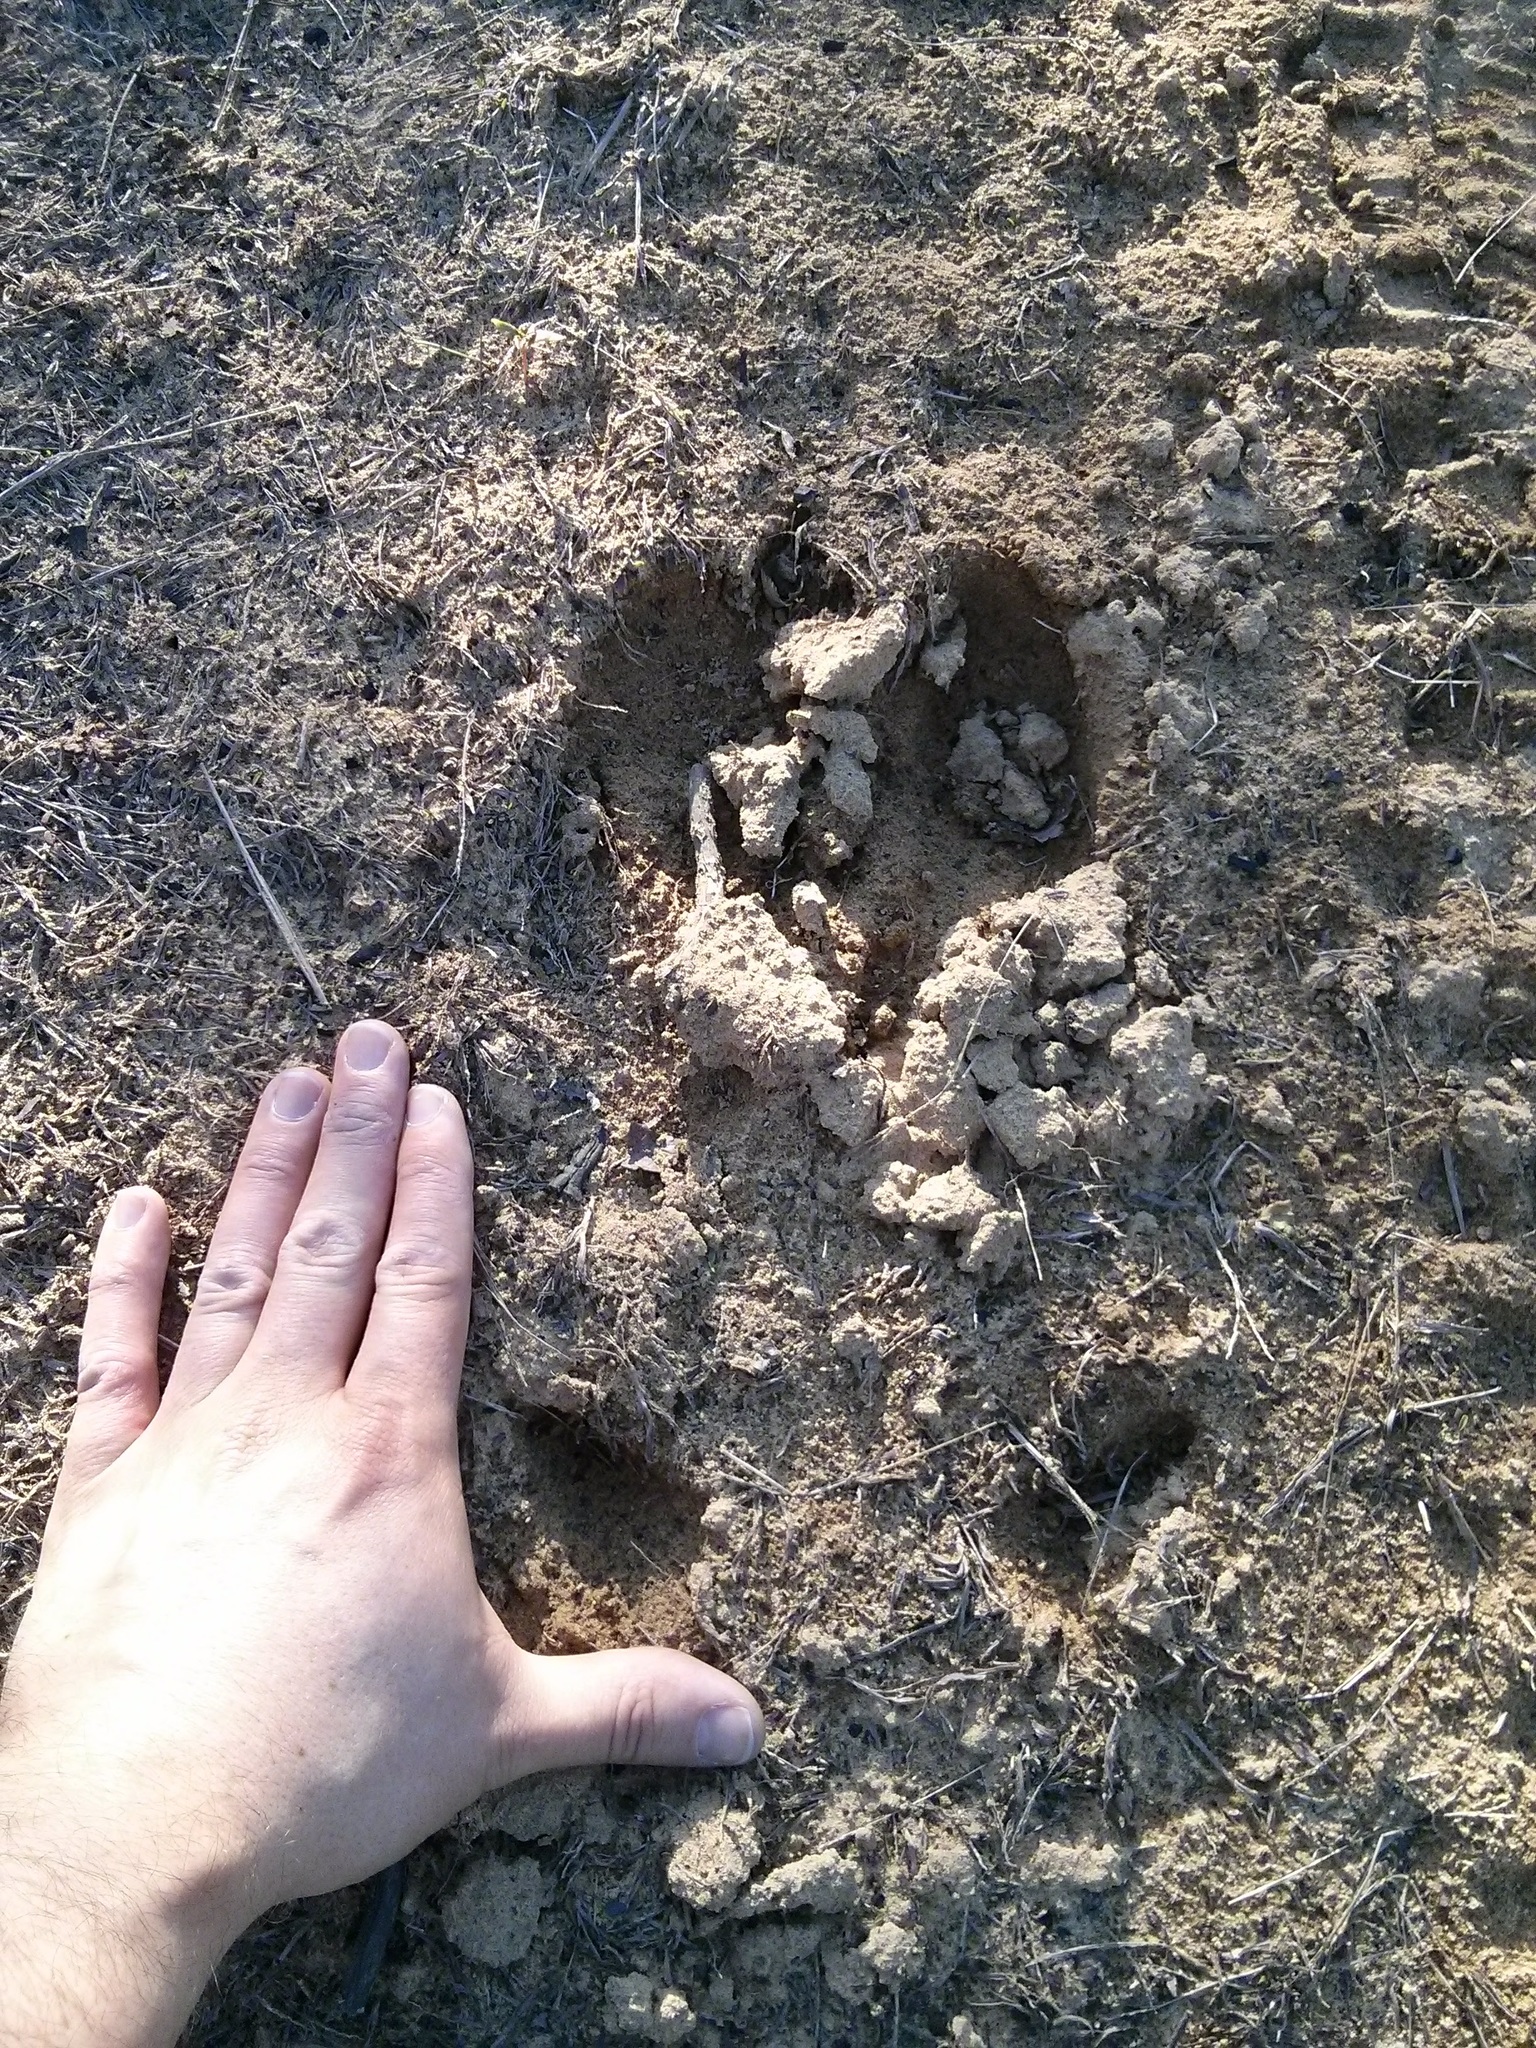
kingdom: Animalia
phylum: Chordata
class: Mammalia
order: Artiodactyla
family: Cervidae
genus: Alces
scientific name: Alces alces
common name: Moose
